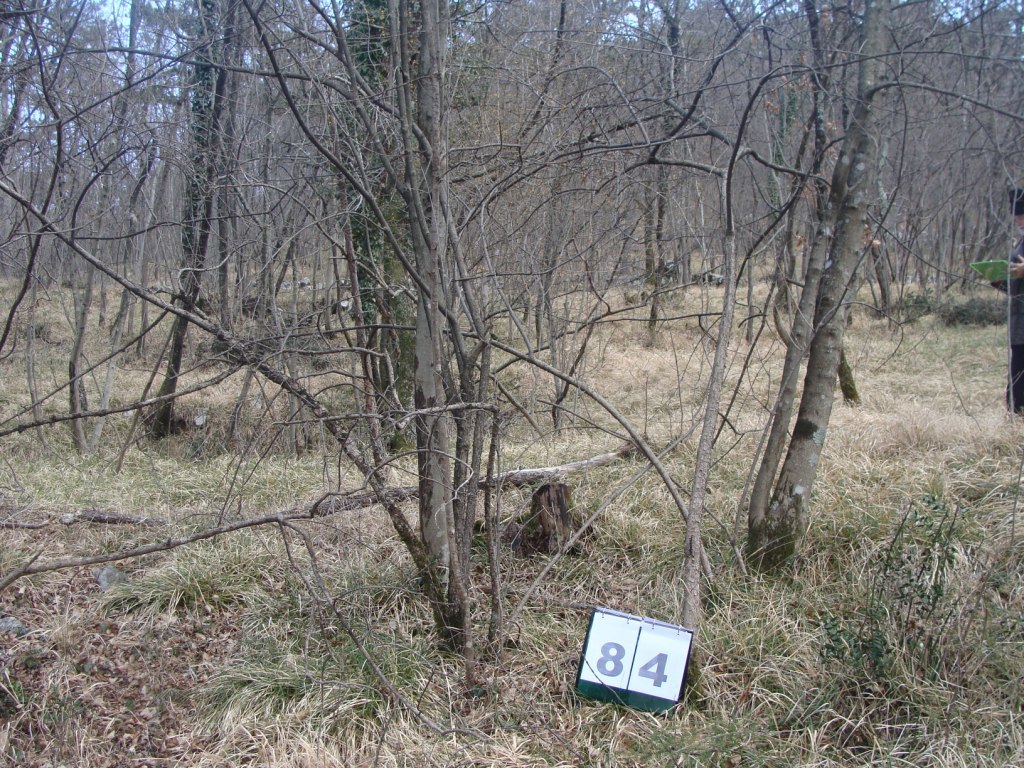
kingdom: Plantae
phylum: Tracheophyta
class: Magnoliopsida
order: Cornales
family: Cornaceae
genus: Cornus
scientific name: Cornus mas
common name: Cornelian-cherry
